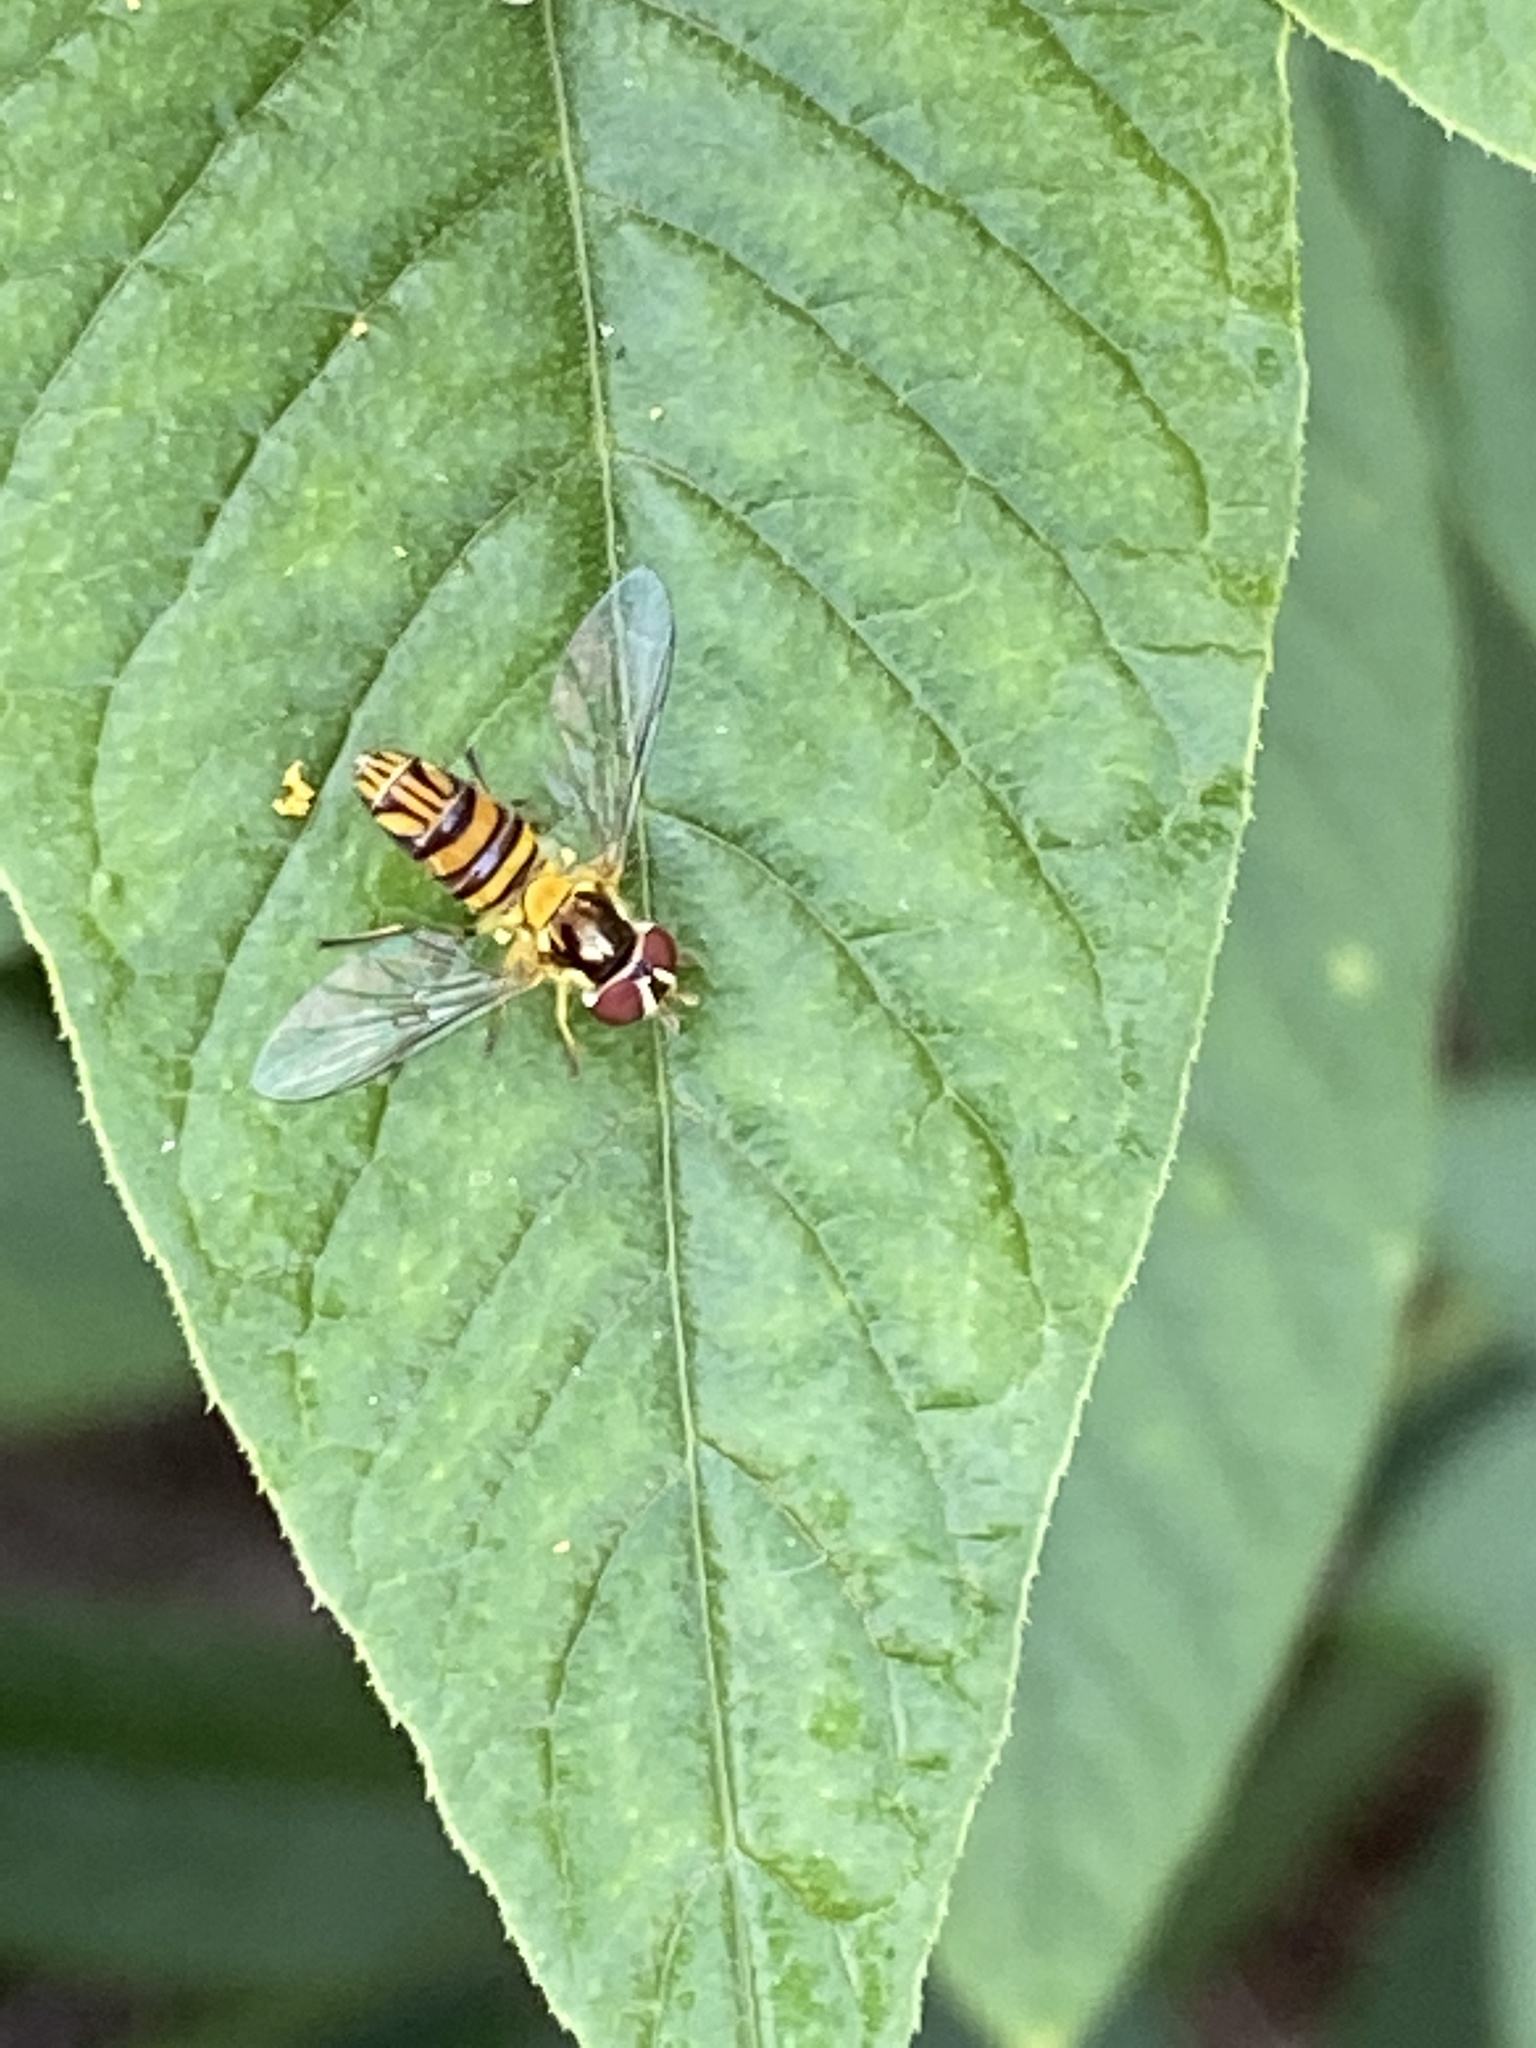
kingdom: Animalia
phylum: Arthropoda
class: Insecta
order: Diptera
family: Syrphidae
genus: Allograpta
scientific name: Allograpta obliqua
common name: Common oblique syrphid
